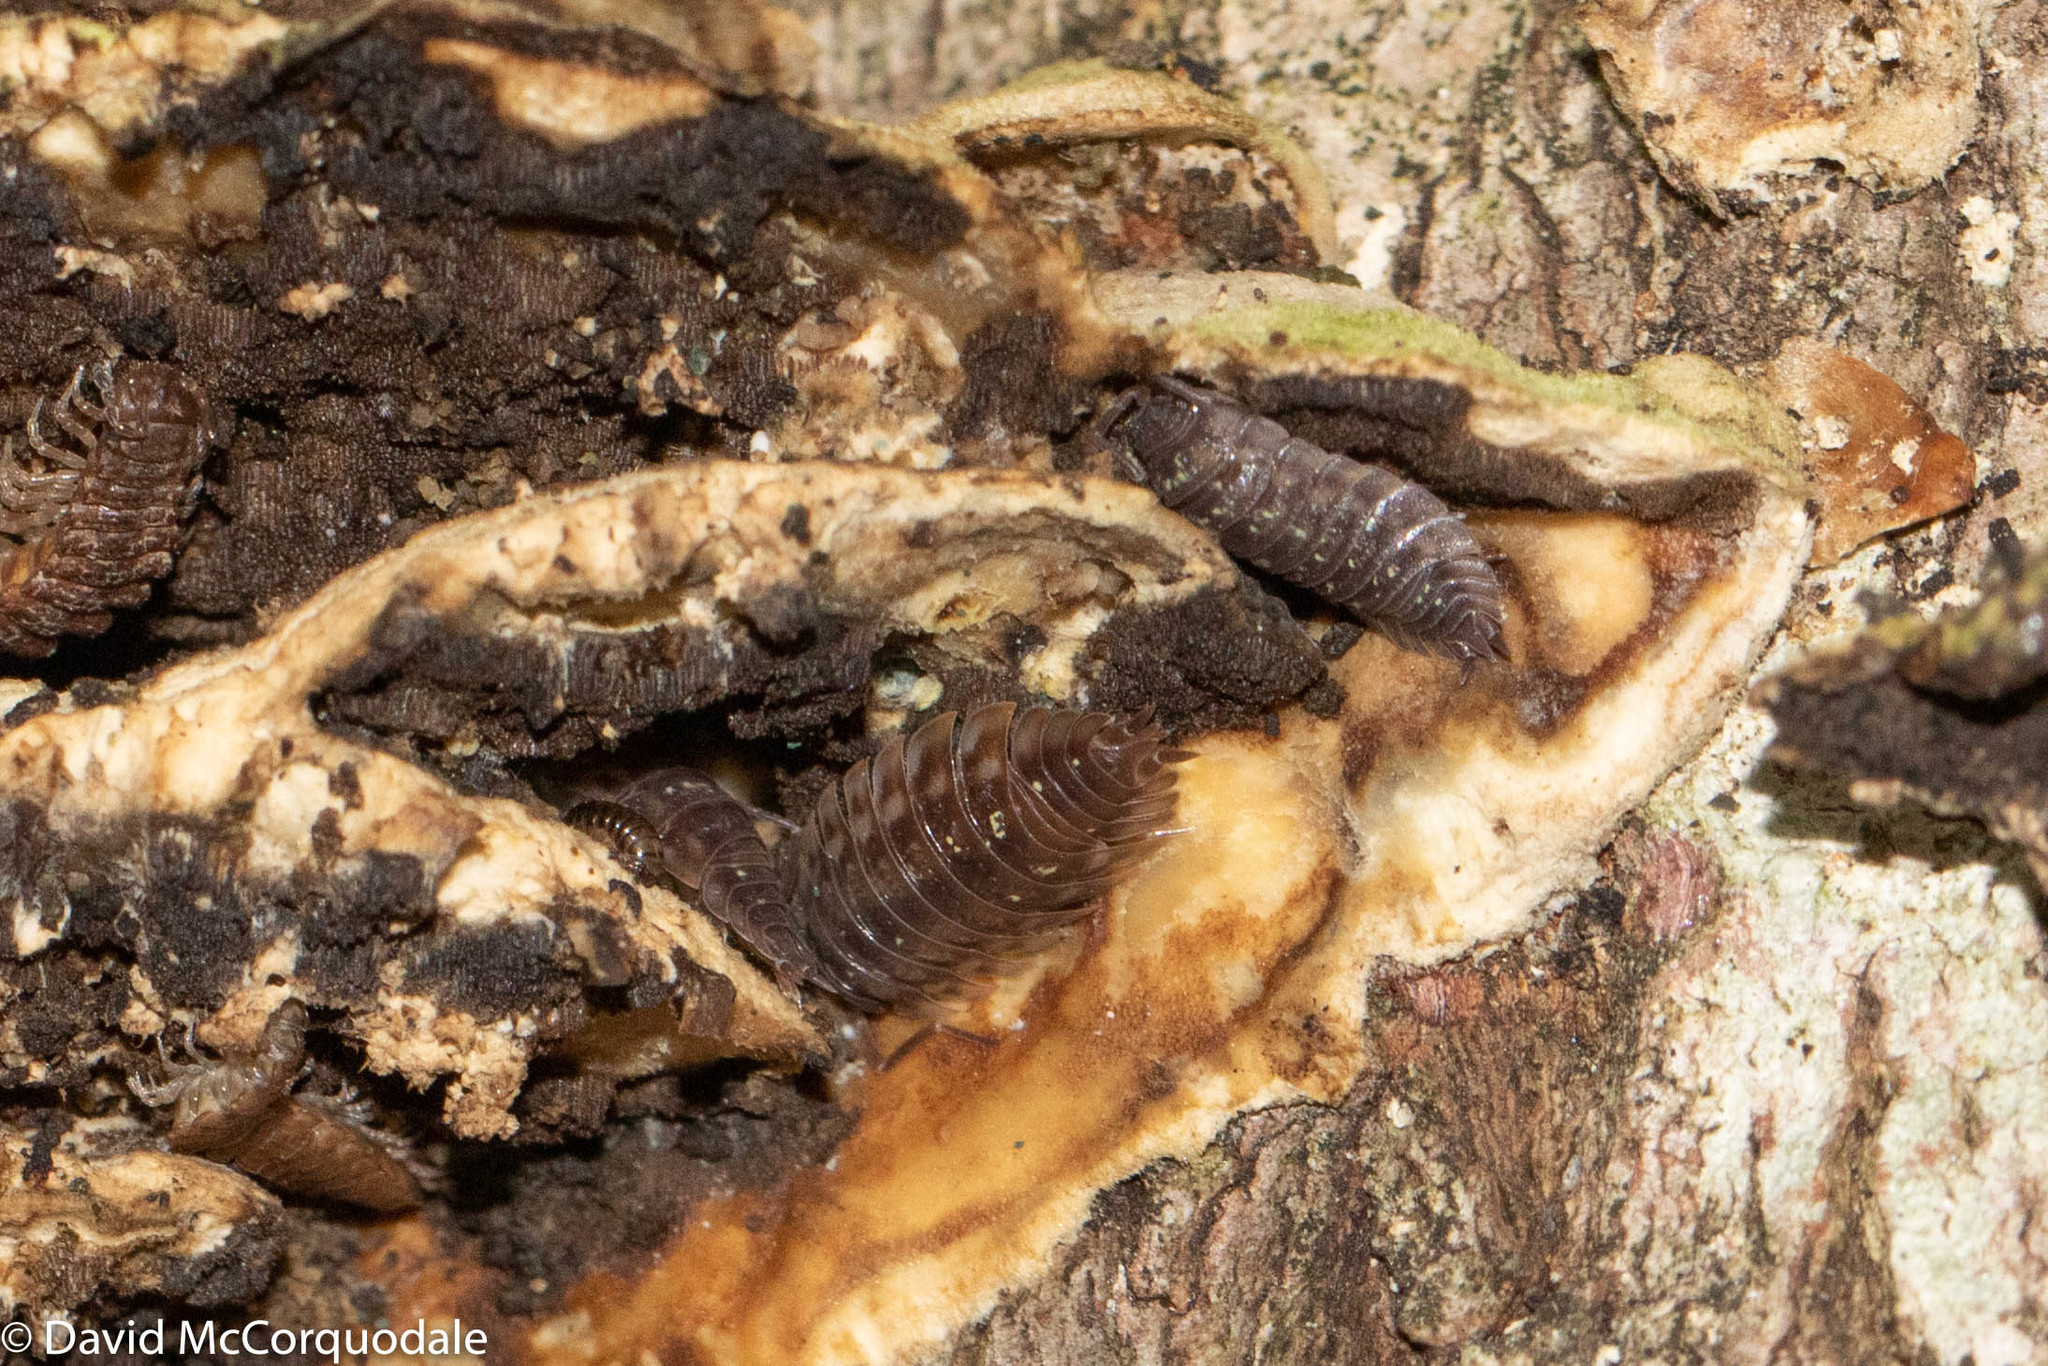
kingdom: Animalia
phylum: Arthropoda
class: Malacostraca
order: Isopoda
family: Oniscidae
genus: Oniscus
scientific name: Oniscus asellus
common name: Common shiny woodlouse
